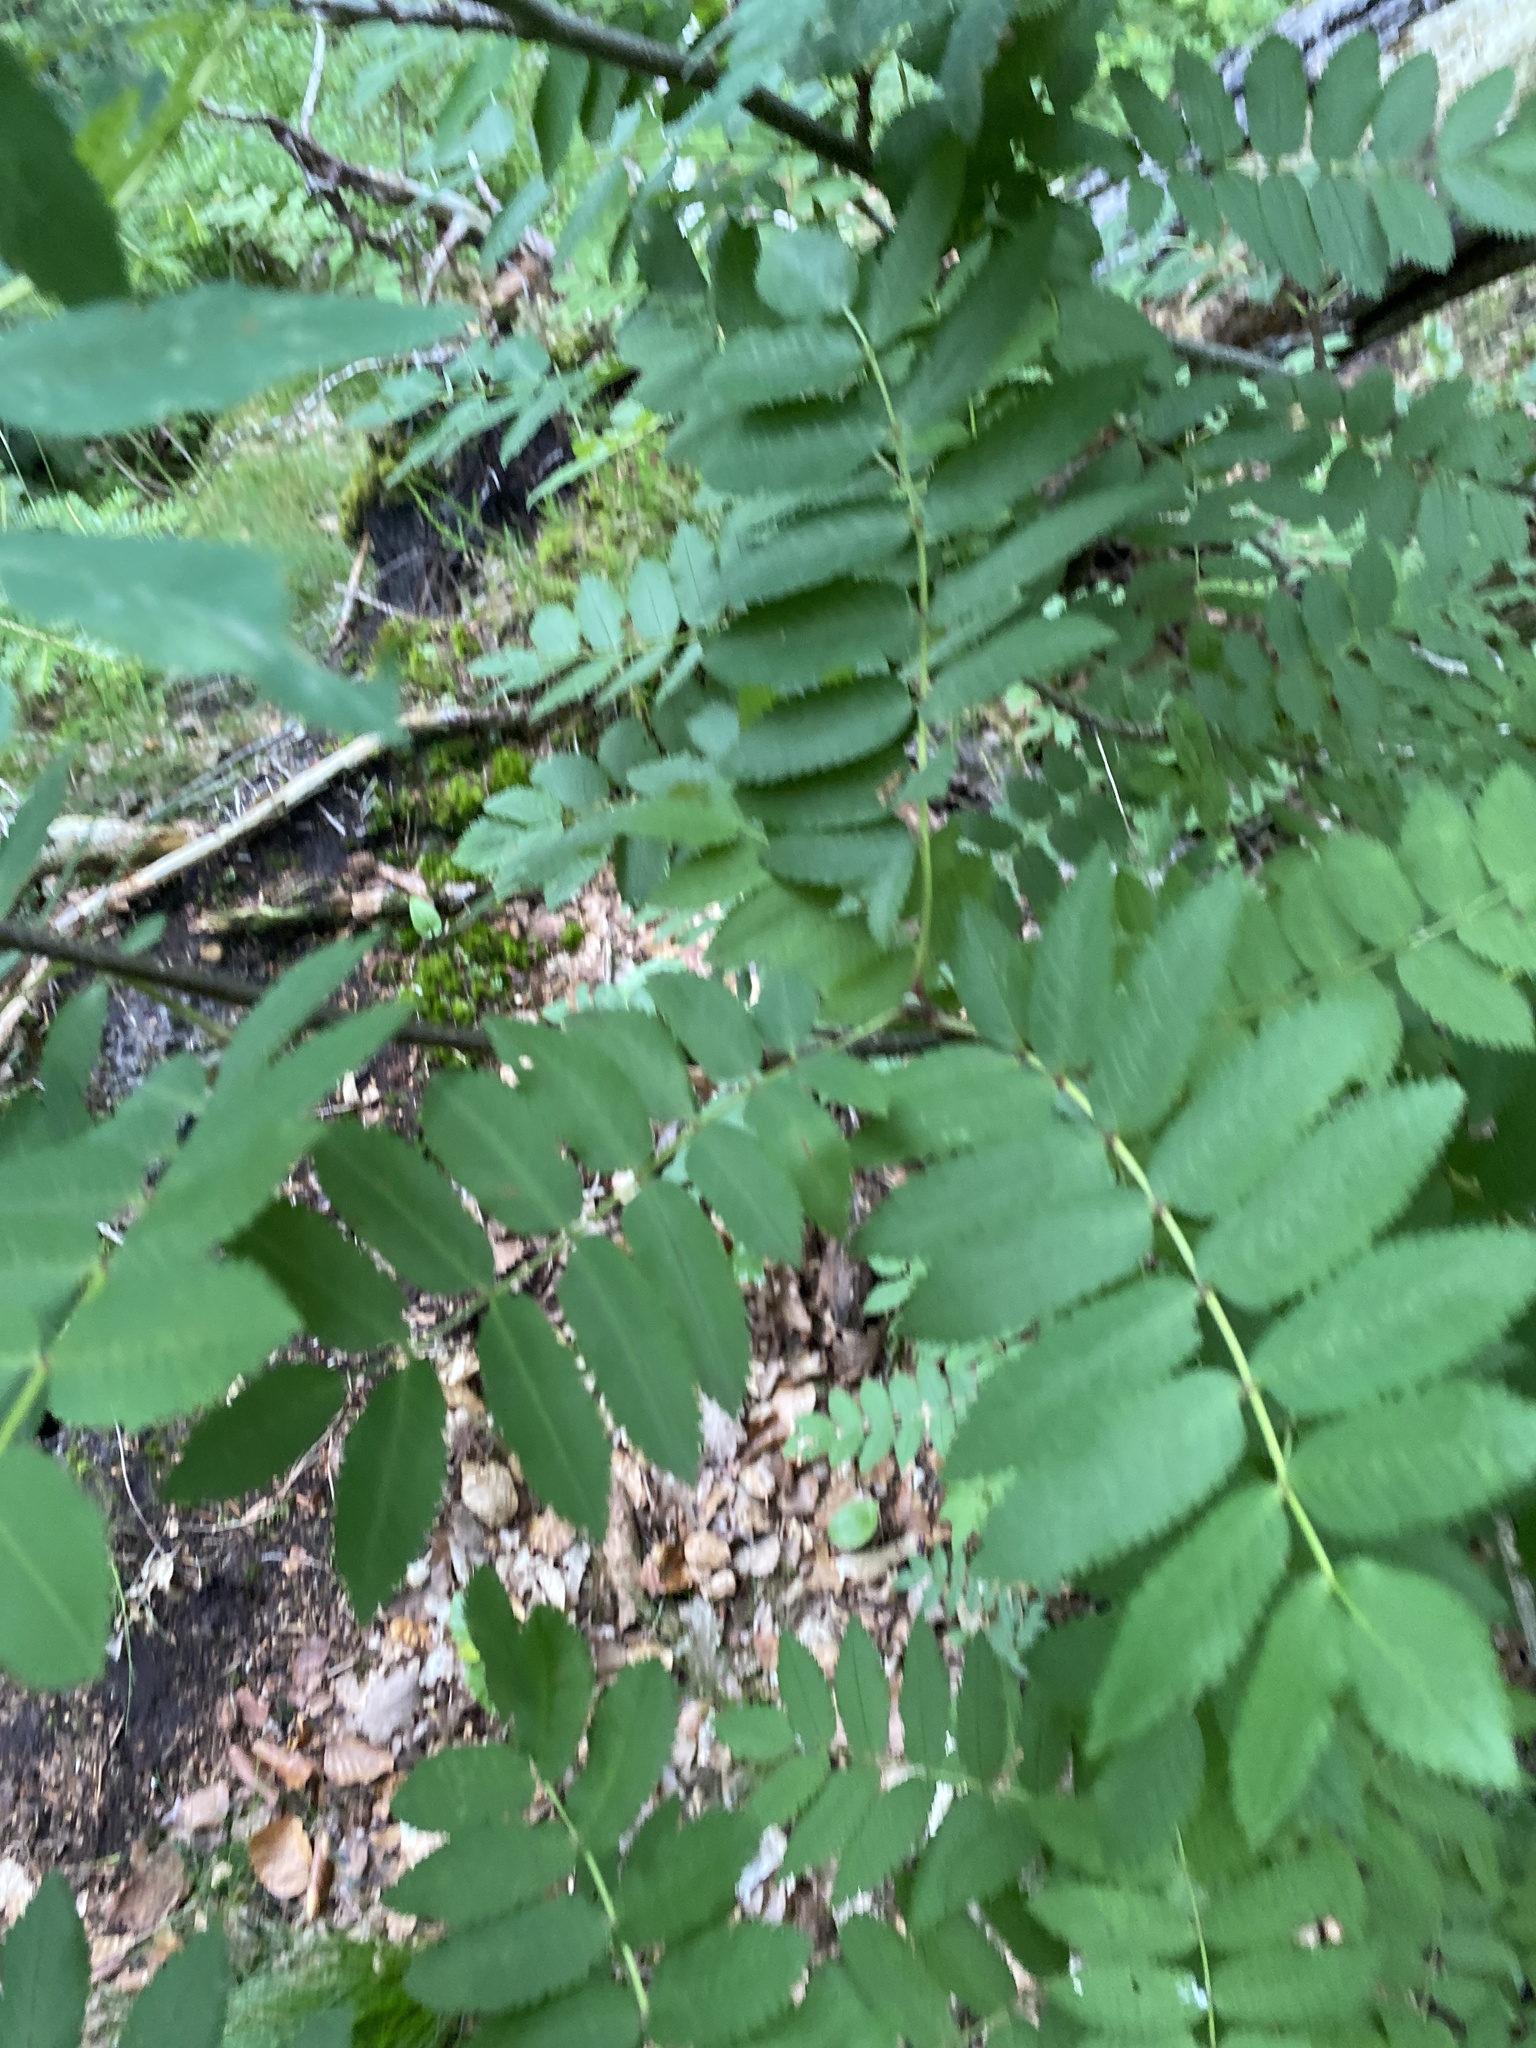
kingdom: Plantae
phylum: Tracheophyta
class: Magnoliopsida
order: Rosales
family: Rosaceae
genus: Sorbus
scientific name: Sorbus aucuparia
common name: Rowan
